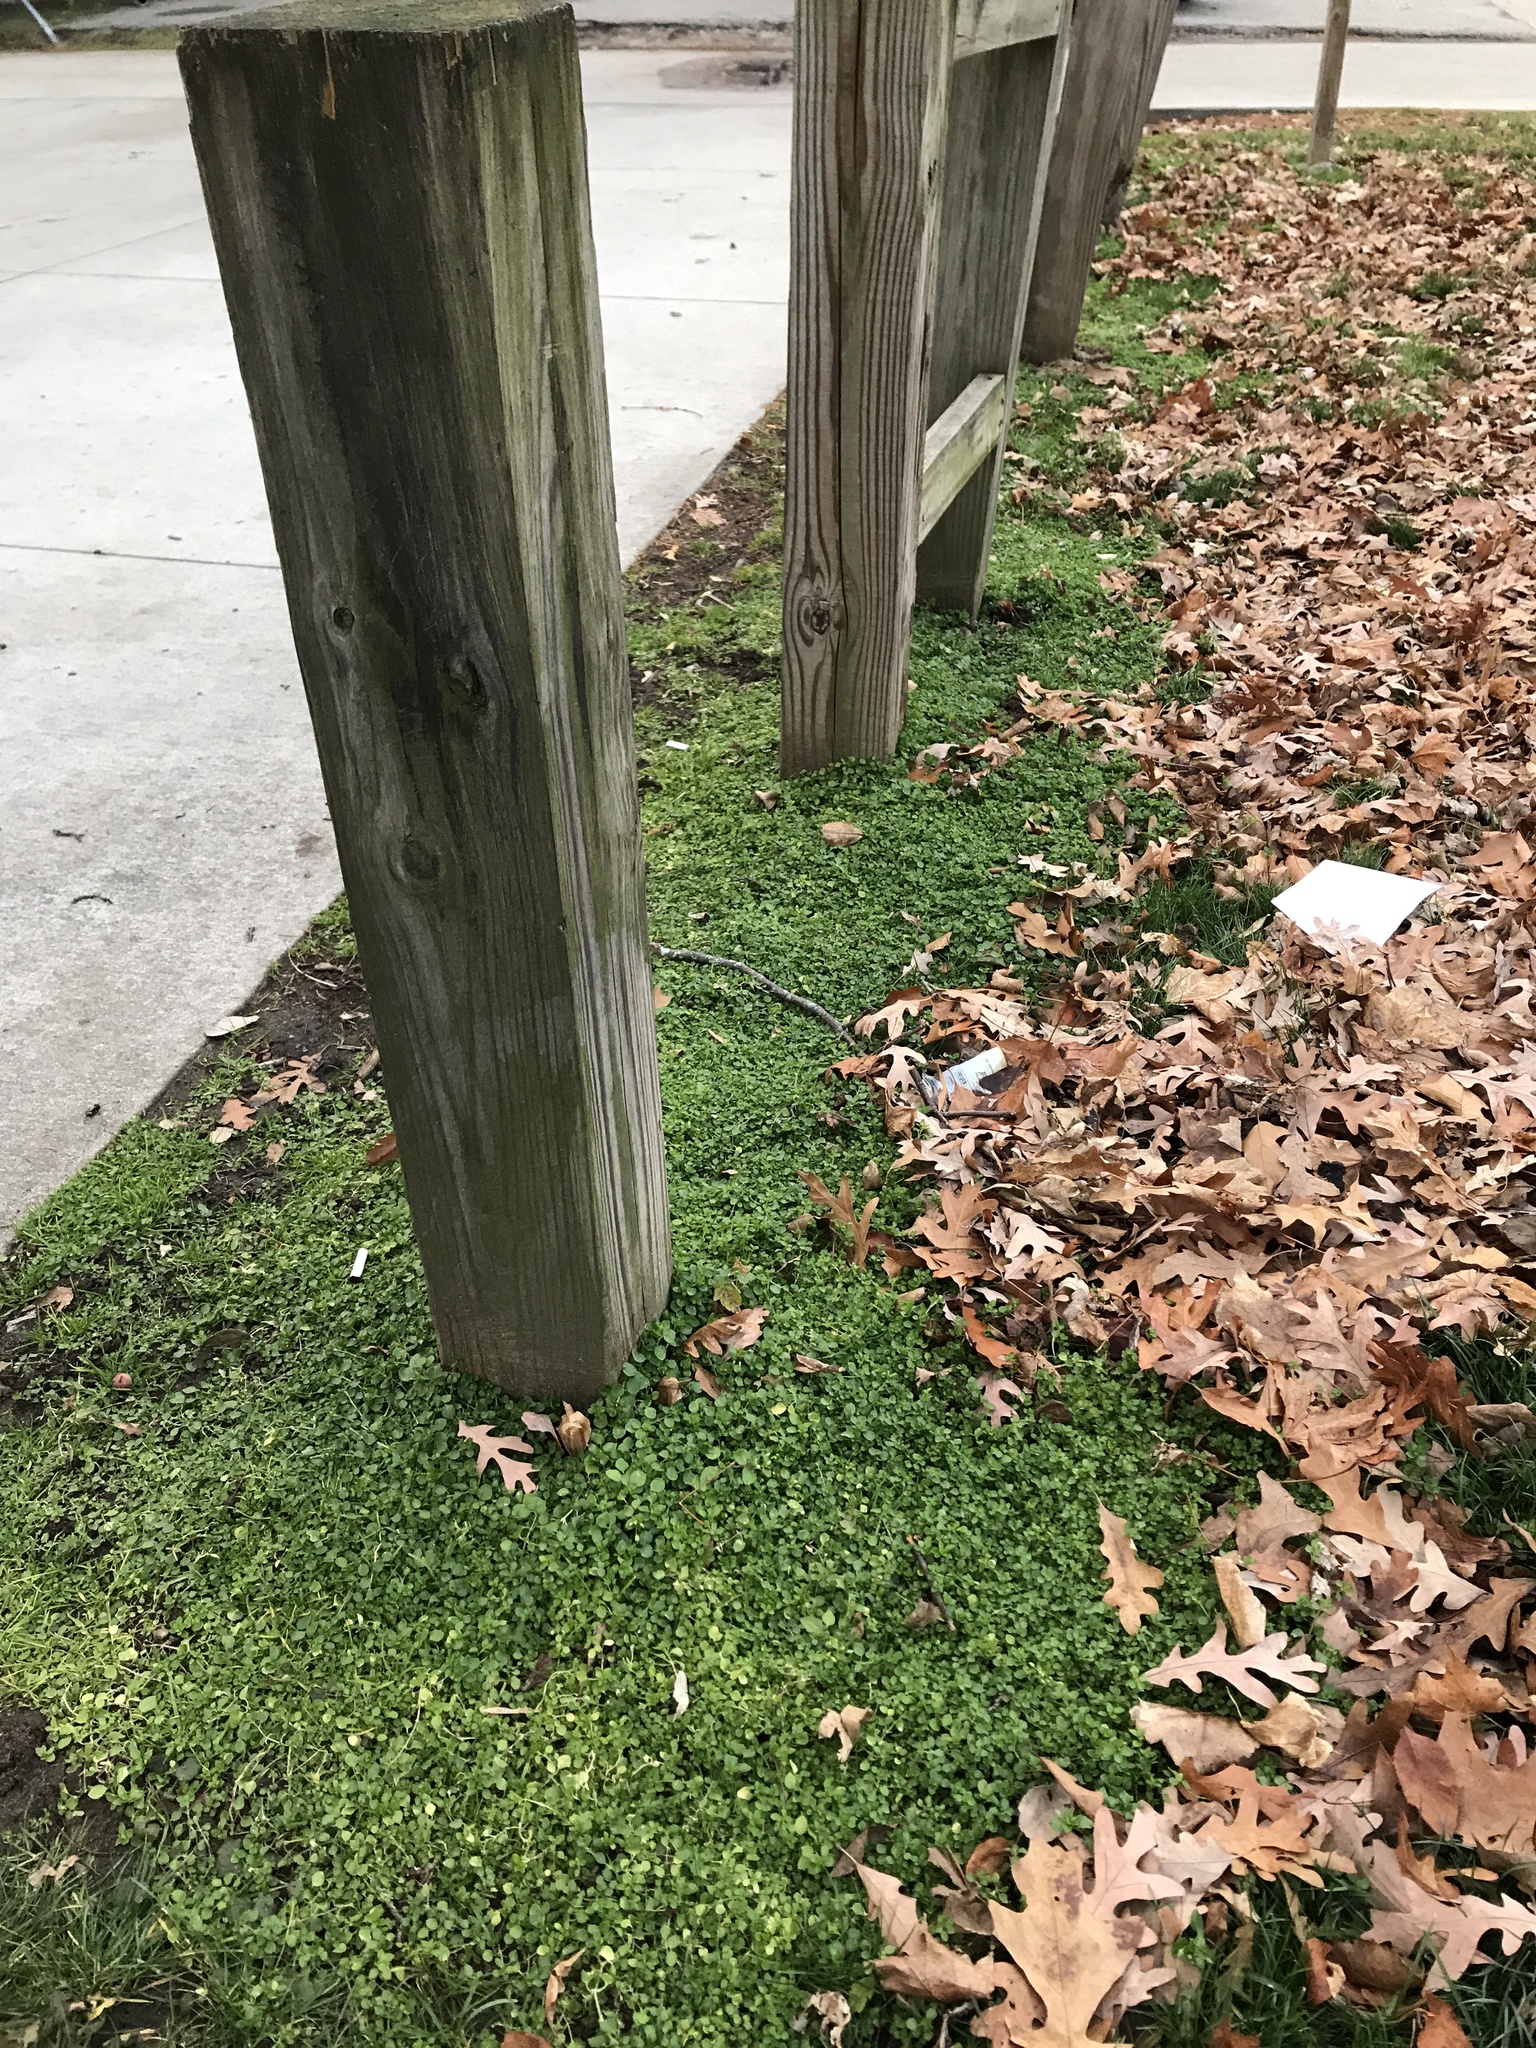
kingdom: Plantae
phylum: Tracheophyta
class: Magnoliopsida
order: Caryophyllales
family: Caryophyllaceae
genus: Stellaria
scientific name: Stellaria media
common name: Common chickweed
